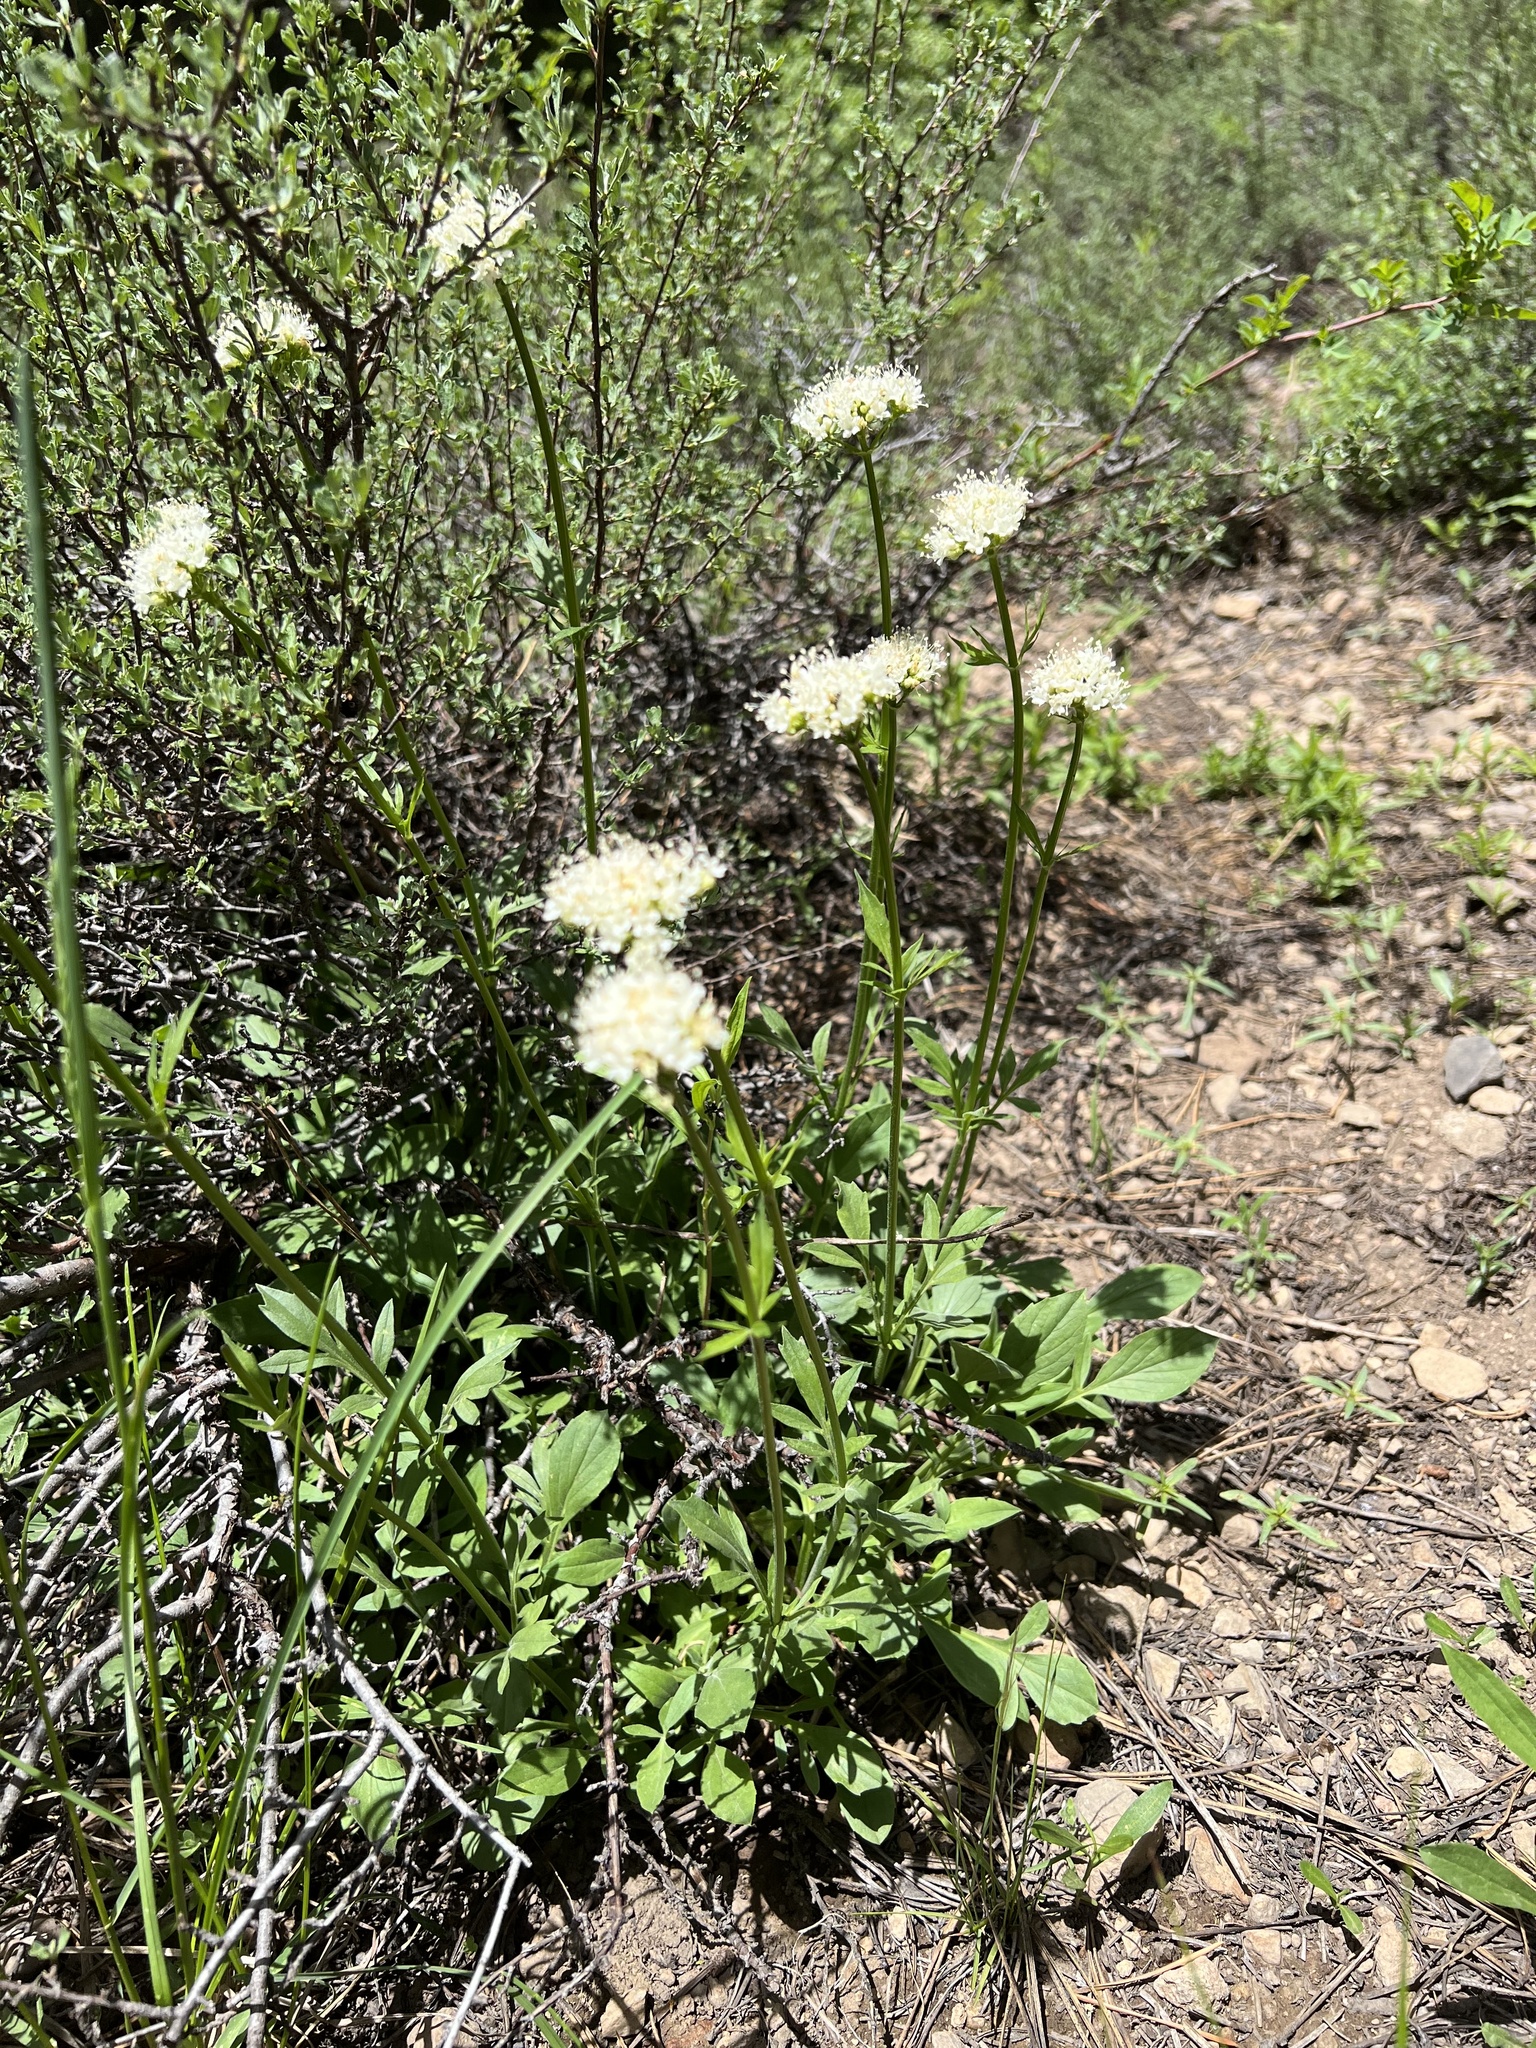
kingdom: Plantae
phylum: Tracheophyta
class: Magnoliopsida
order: Dipsacales
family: Caprifoliaceae
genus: Valeriana
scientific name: Valeriana californica
